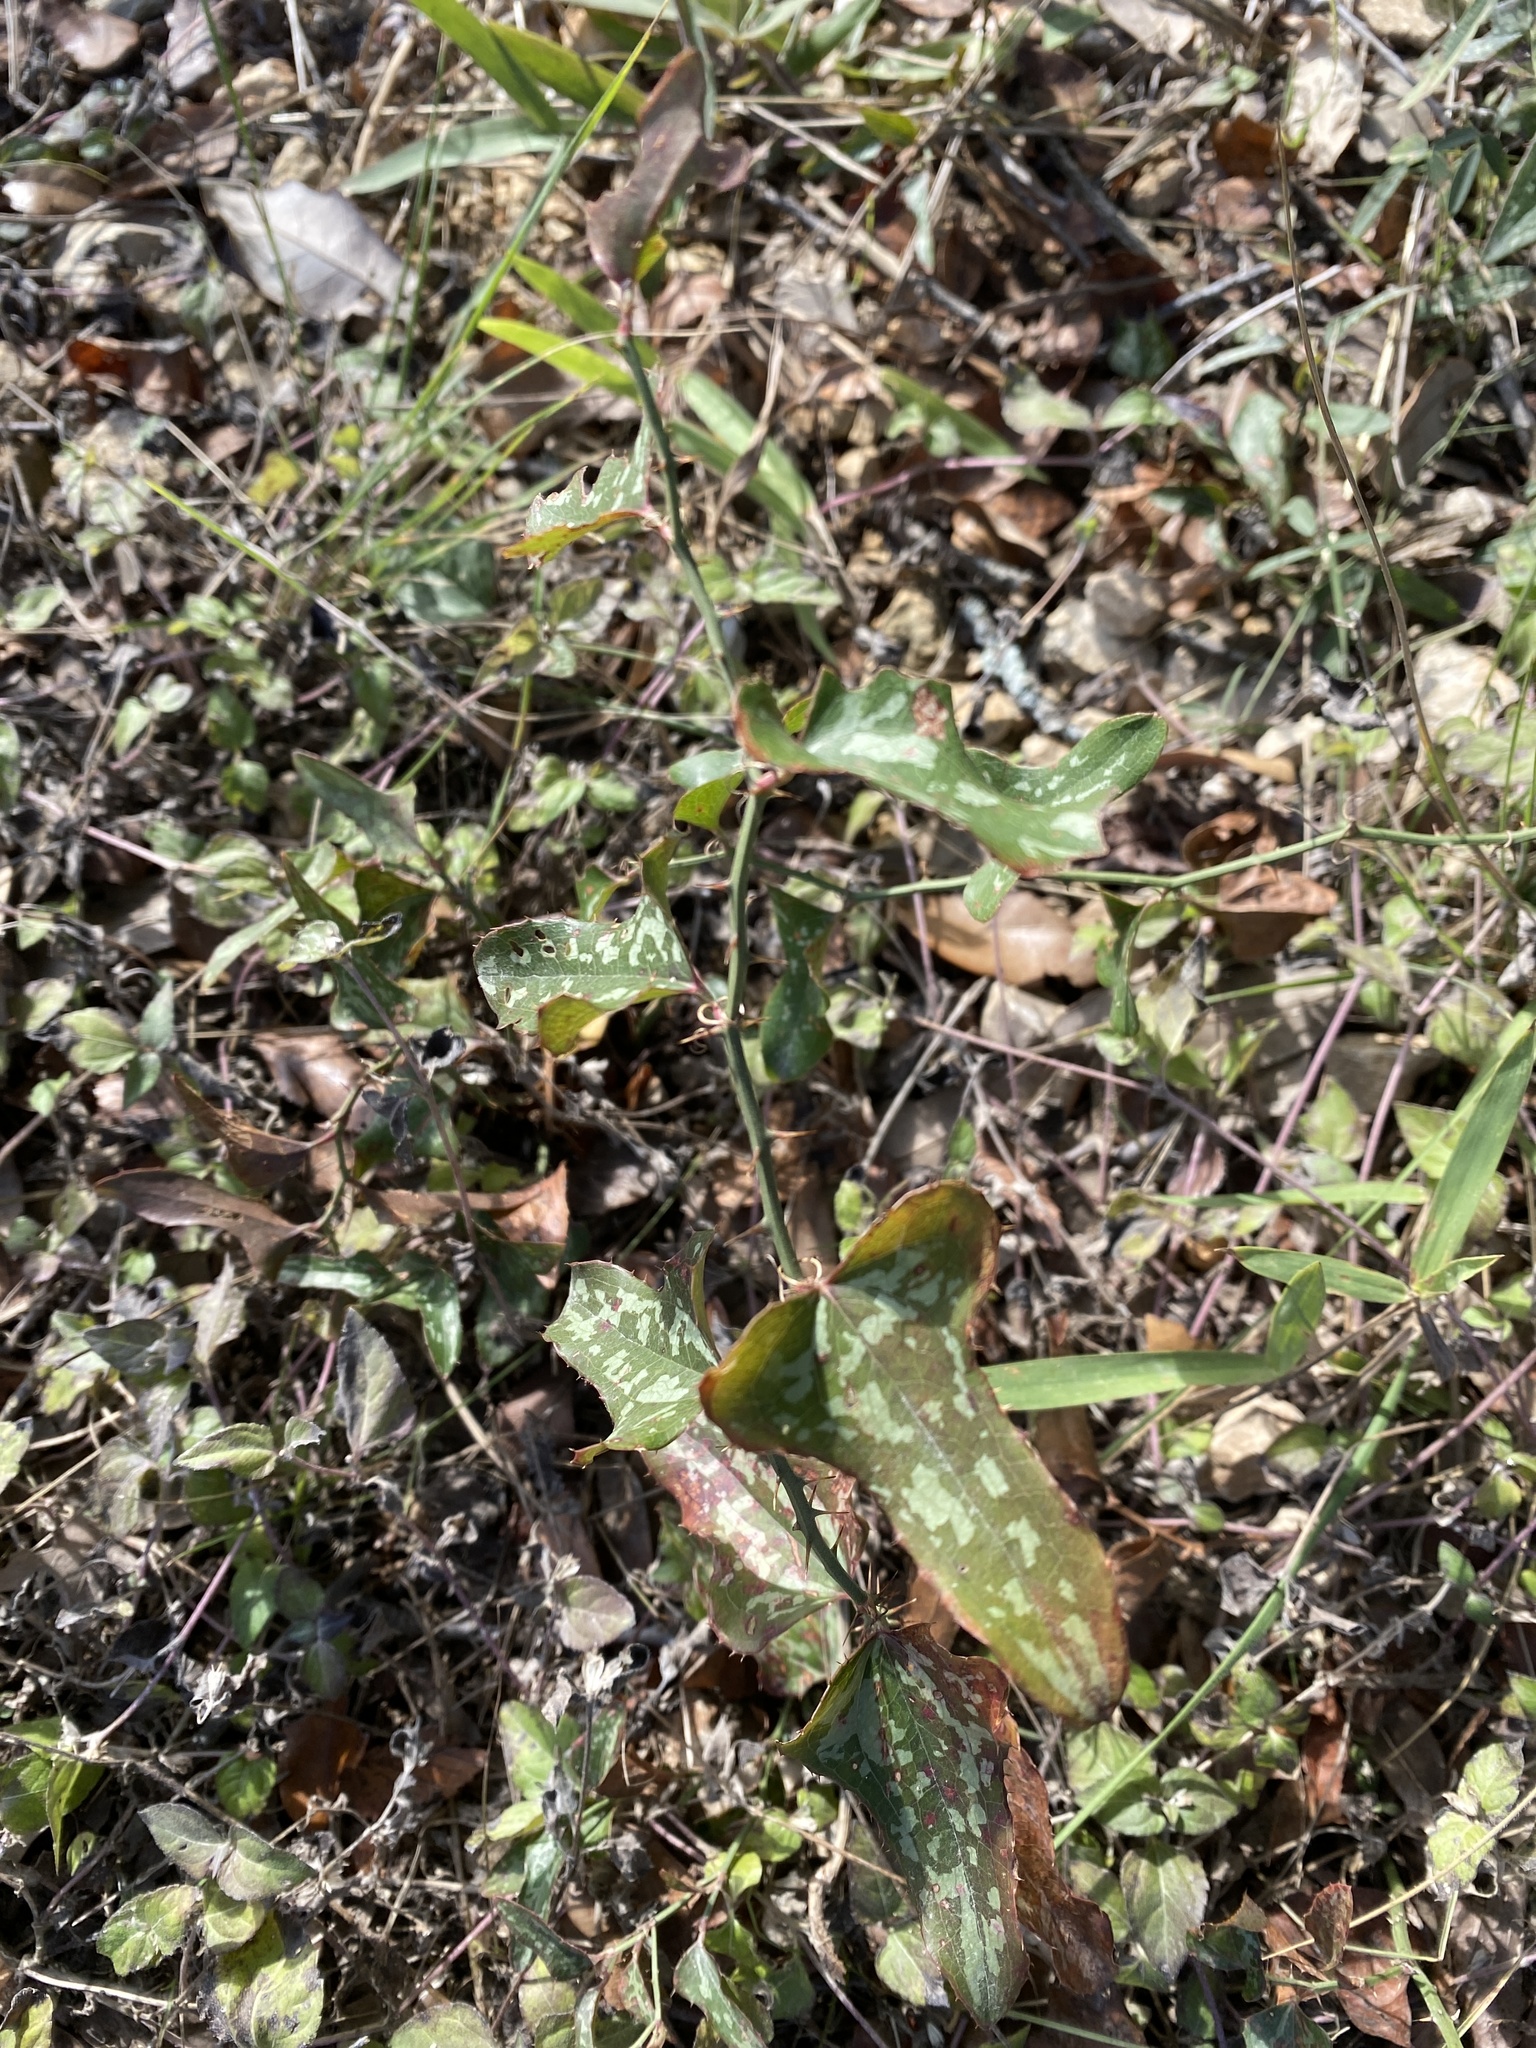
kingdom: Plantae
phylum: Tracheophyta
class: Liliopsida
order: Liliales
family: Smilacaceae
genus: Smilax
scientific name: Smilax bona-nox
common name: Catbrier
